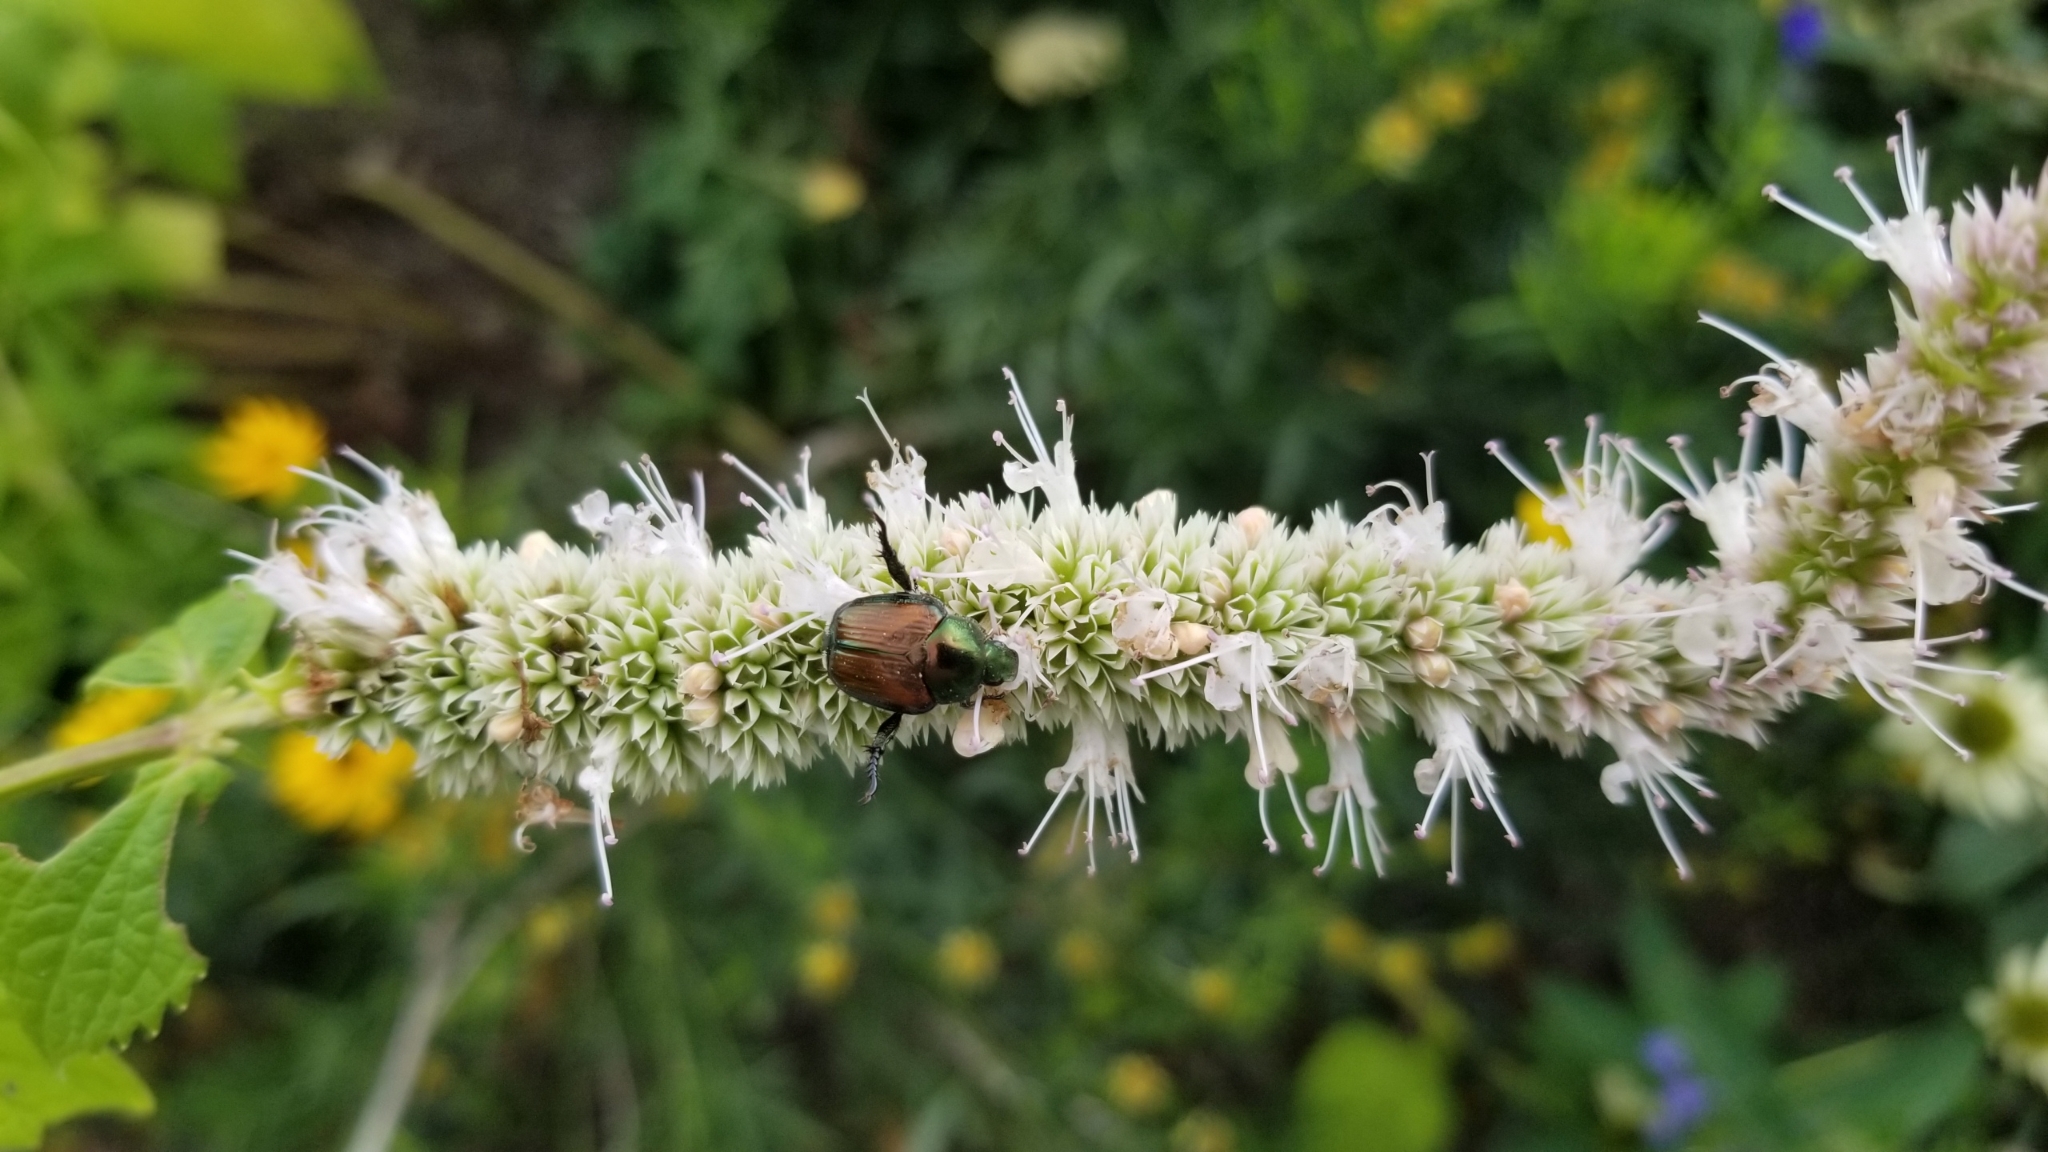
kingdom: Animalia
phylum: Arthropoda
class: Insecta
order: Coleoptera
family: Scarabaeidae
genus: Popillia
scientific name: Popillia japonica
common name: Japanese beetle
